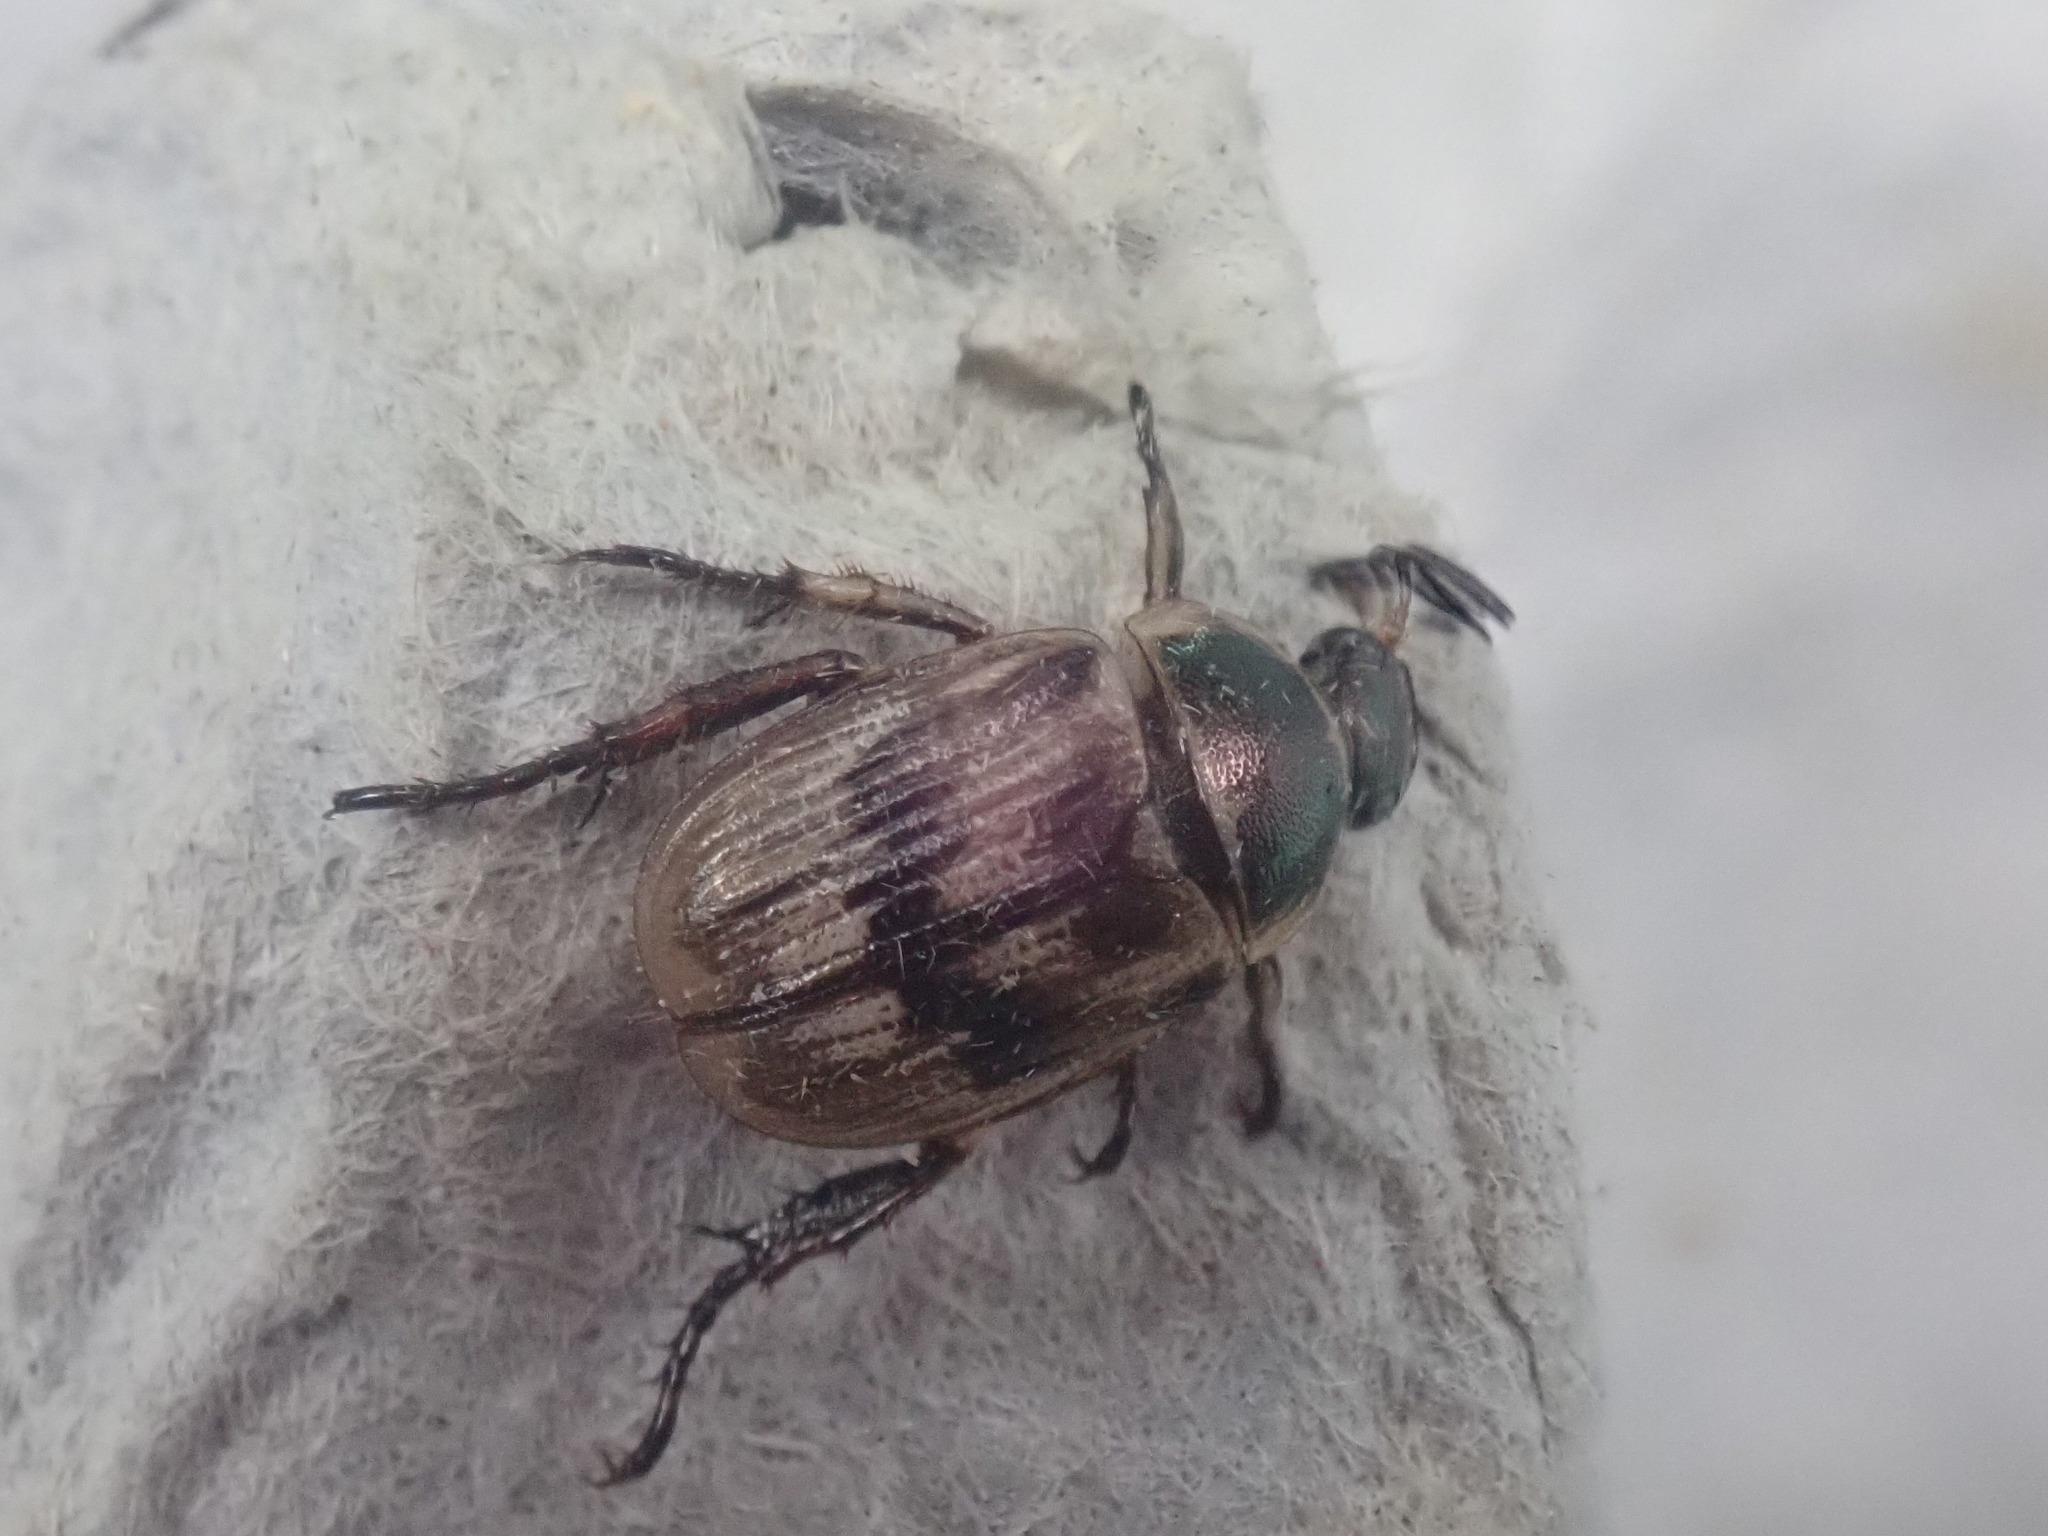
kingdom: Animalia
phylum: Arthropoda
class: Insecta
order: Coleoptera
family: Scarabaeidae
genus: Exomala
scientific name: Exomala orientalis
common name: Oriental beetle
